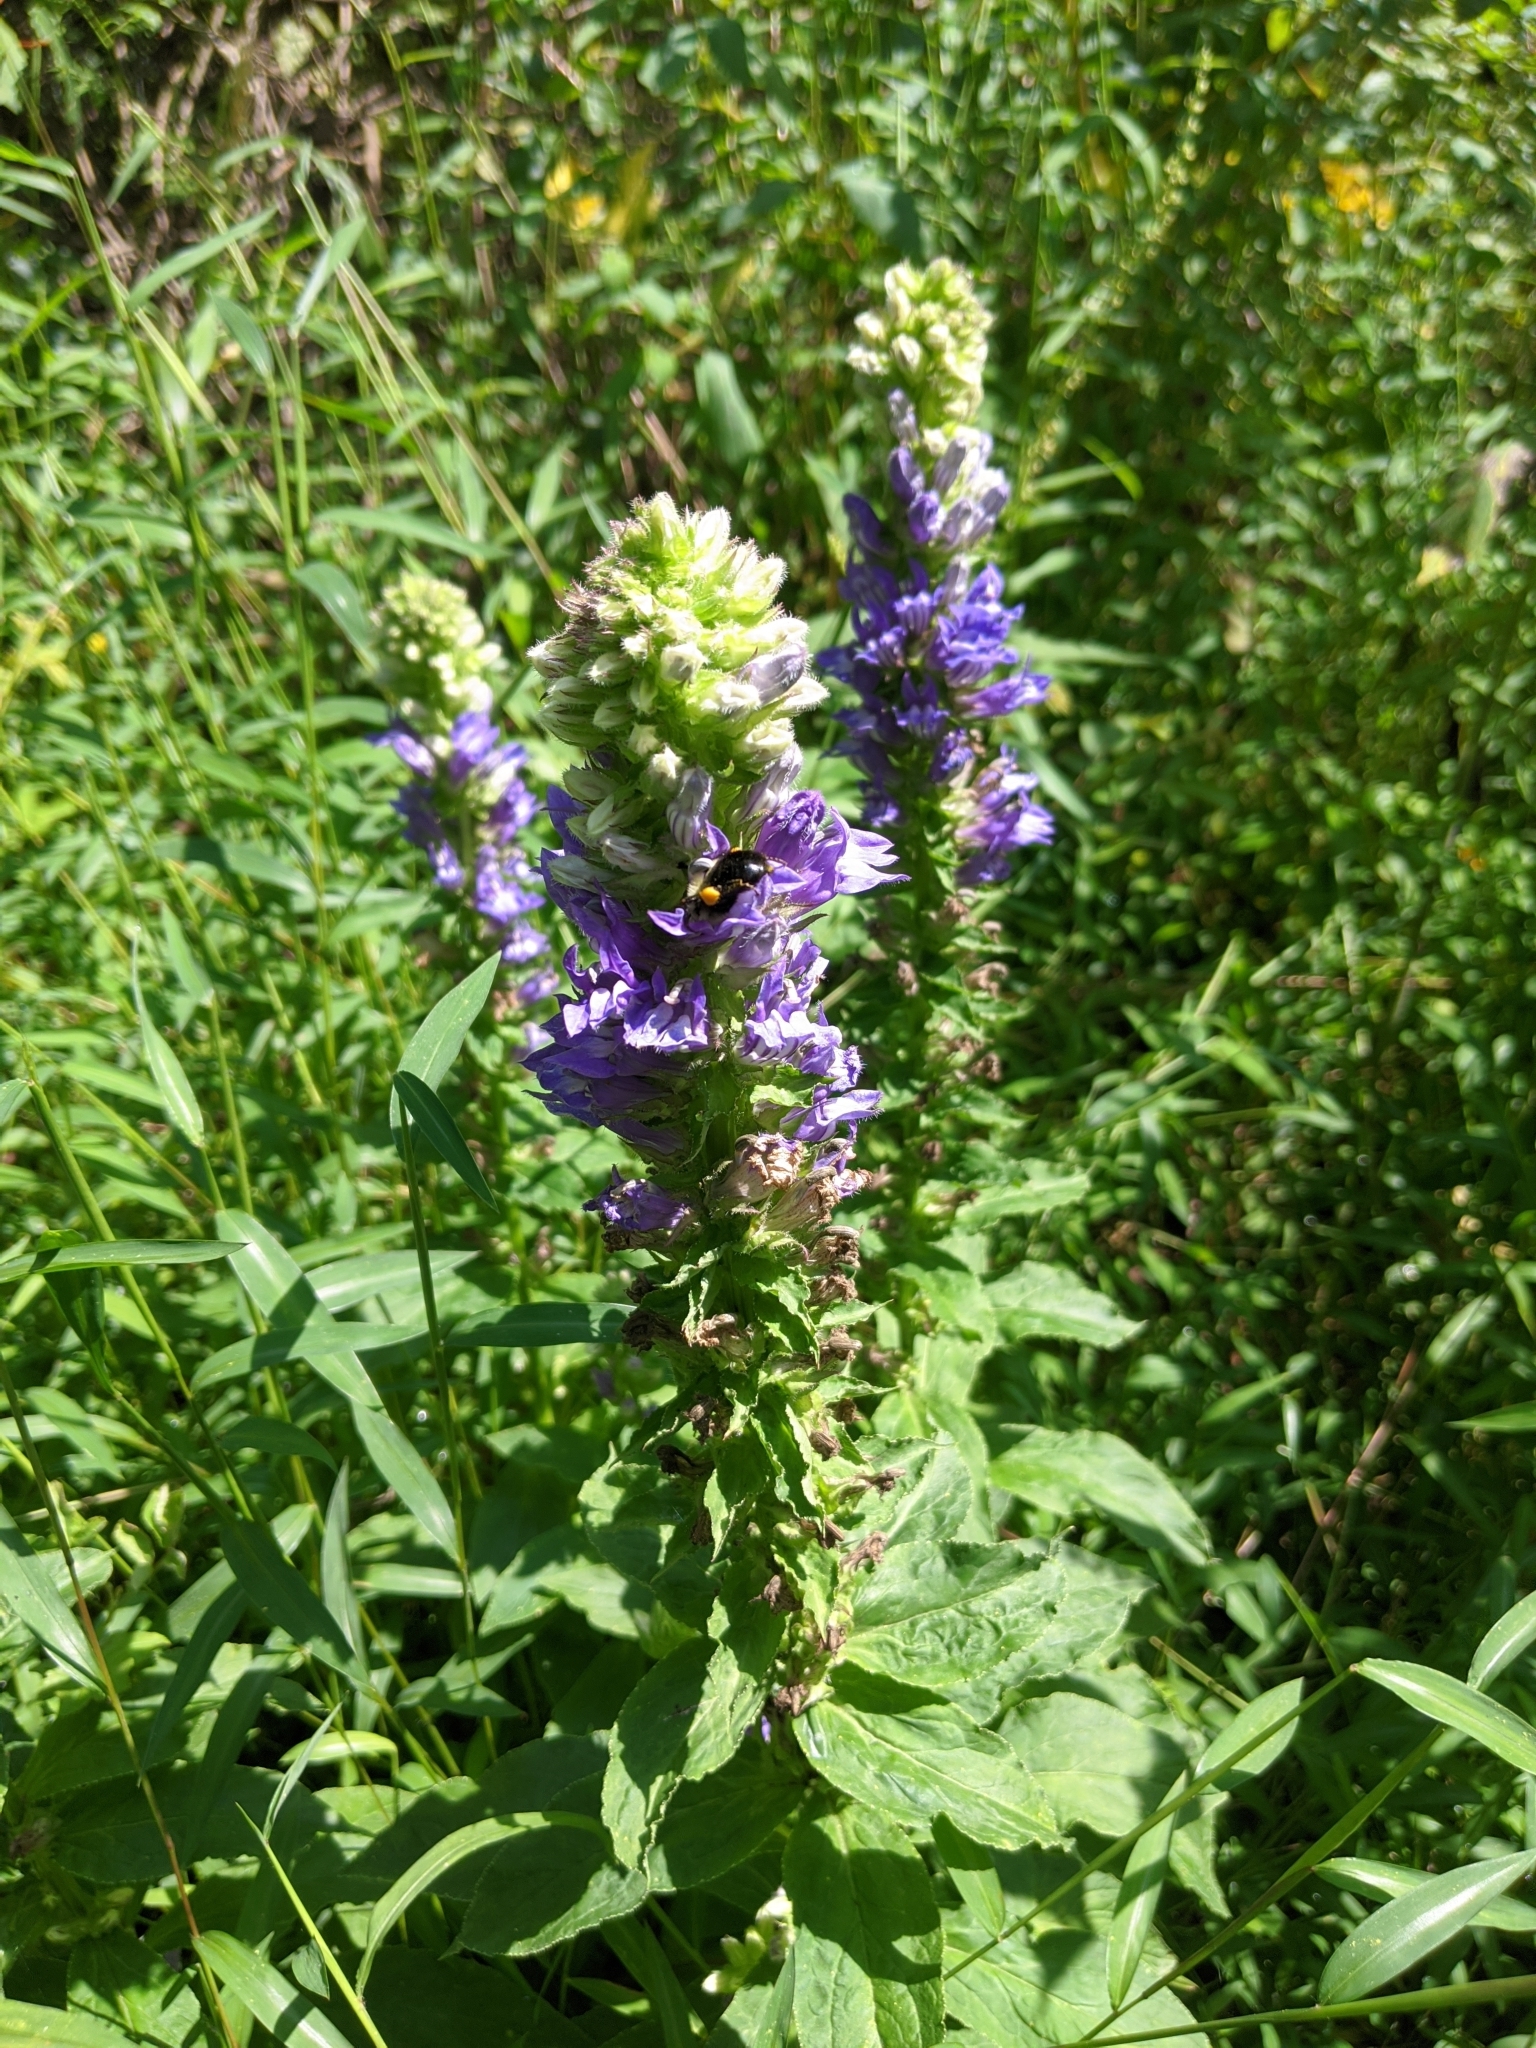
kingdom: Plantae
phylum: Tracheophyta
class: Magnoliopsida
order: Asterales
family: Campanulaceae
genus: Lobelia
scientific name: Lobelia siphilitica
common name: Great lobelia
